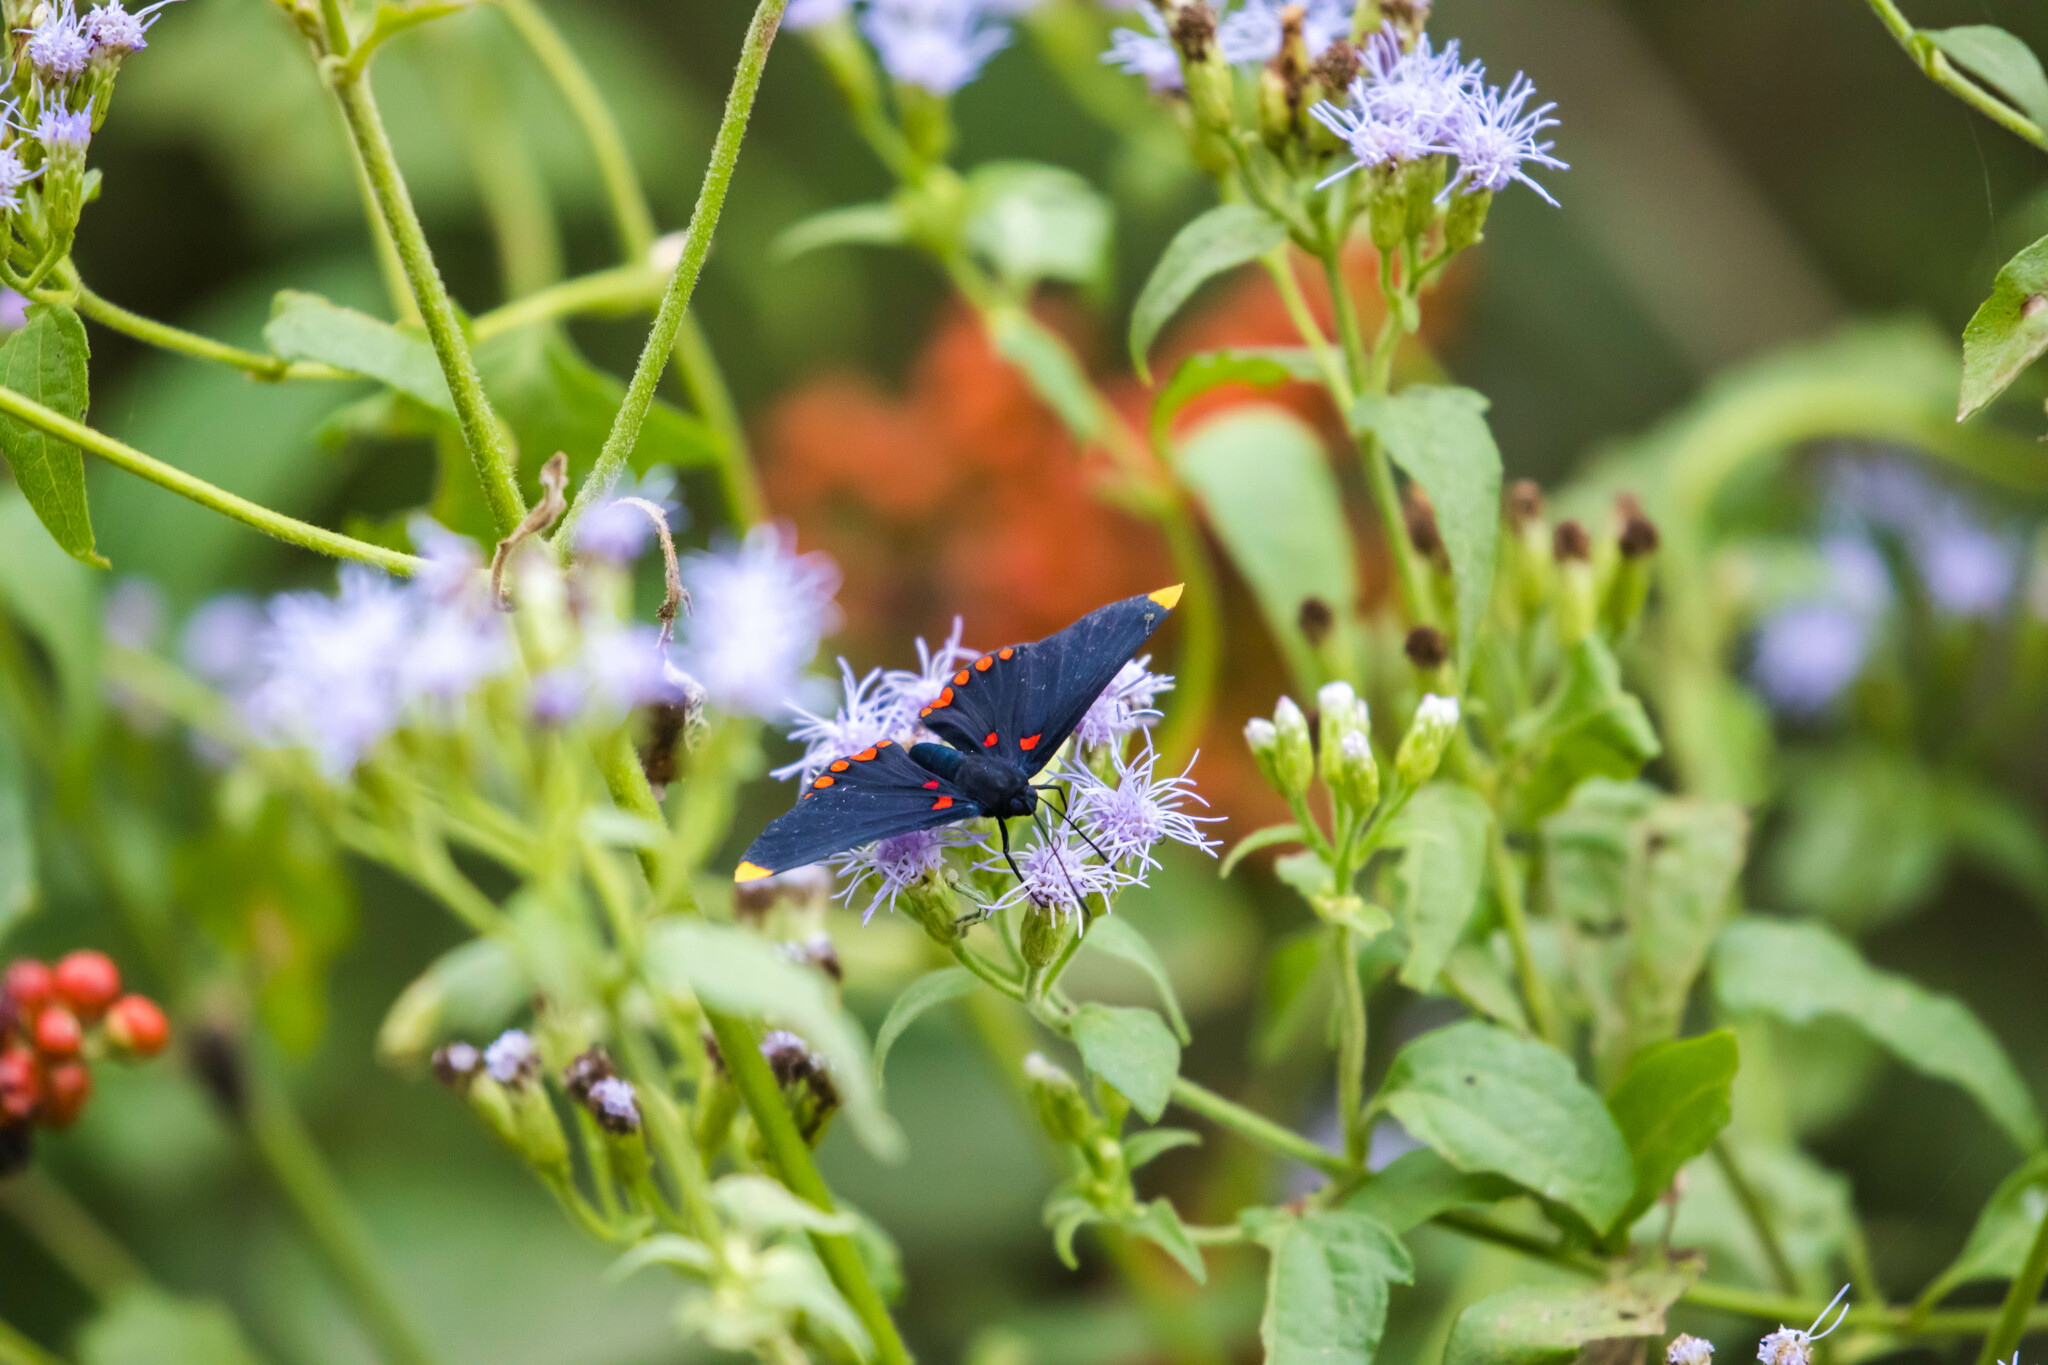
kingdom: Animalia
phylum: Arthropoda
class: Insecta
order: Lepidoptera
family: Lycaenidae
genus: Melanis
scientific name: Melanis pixe
